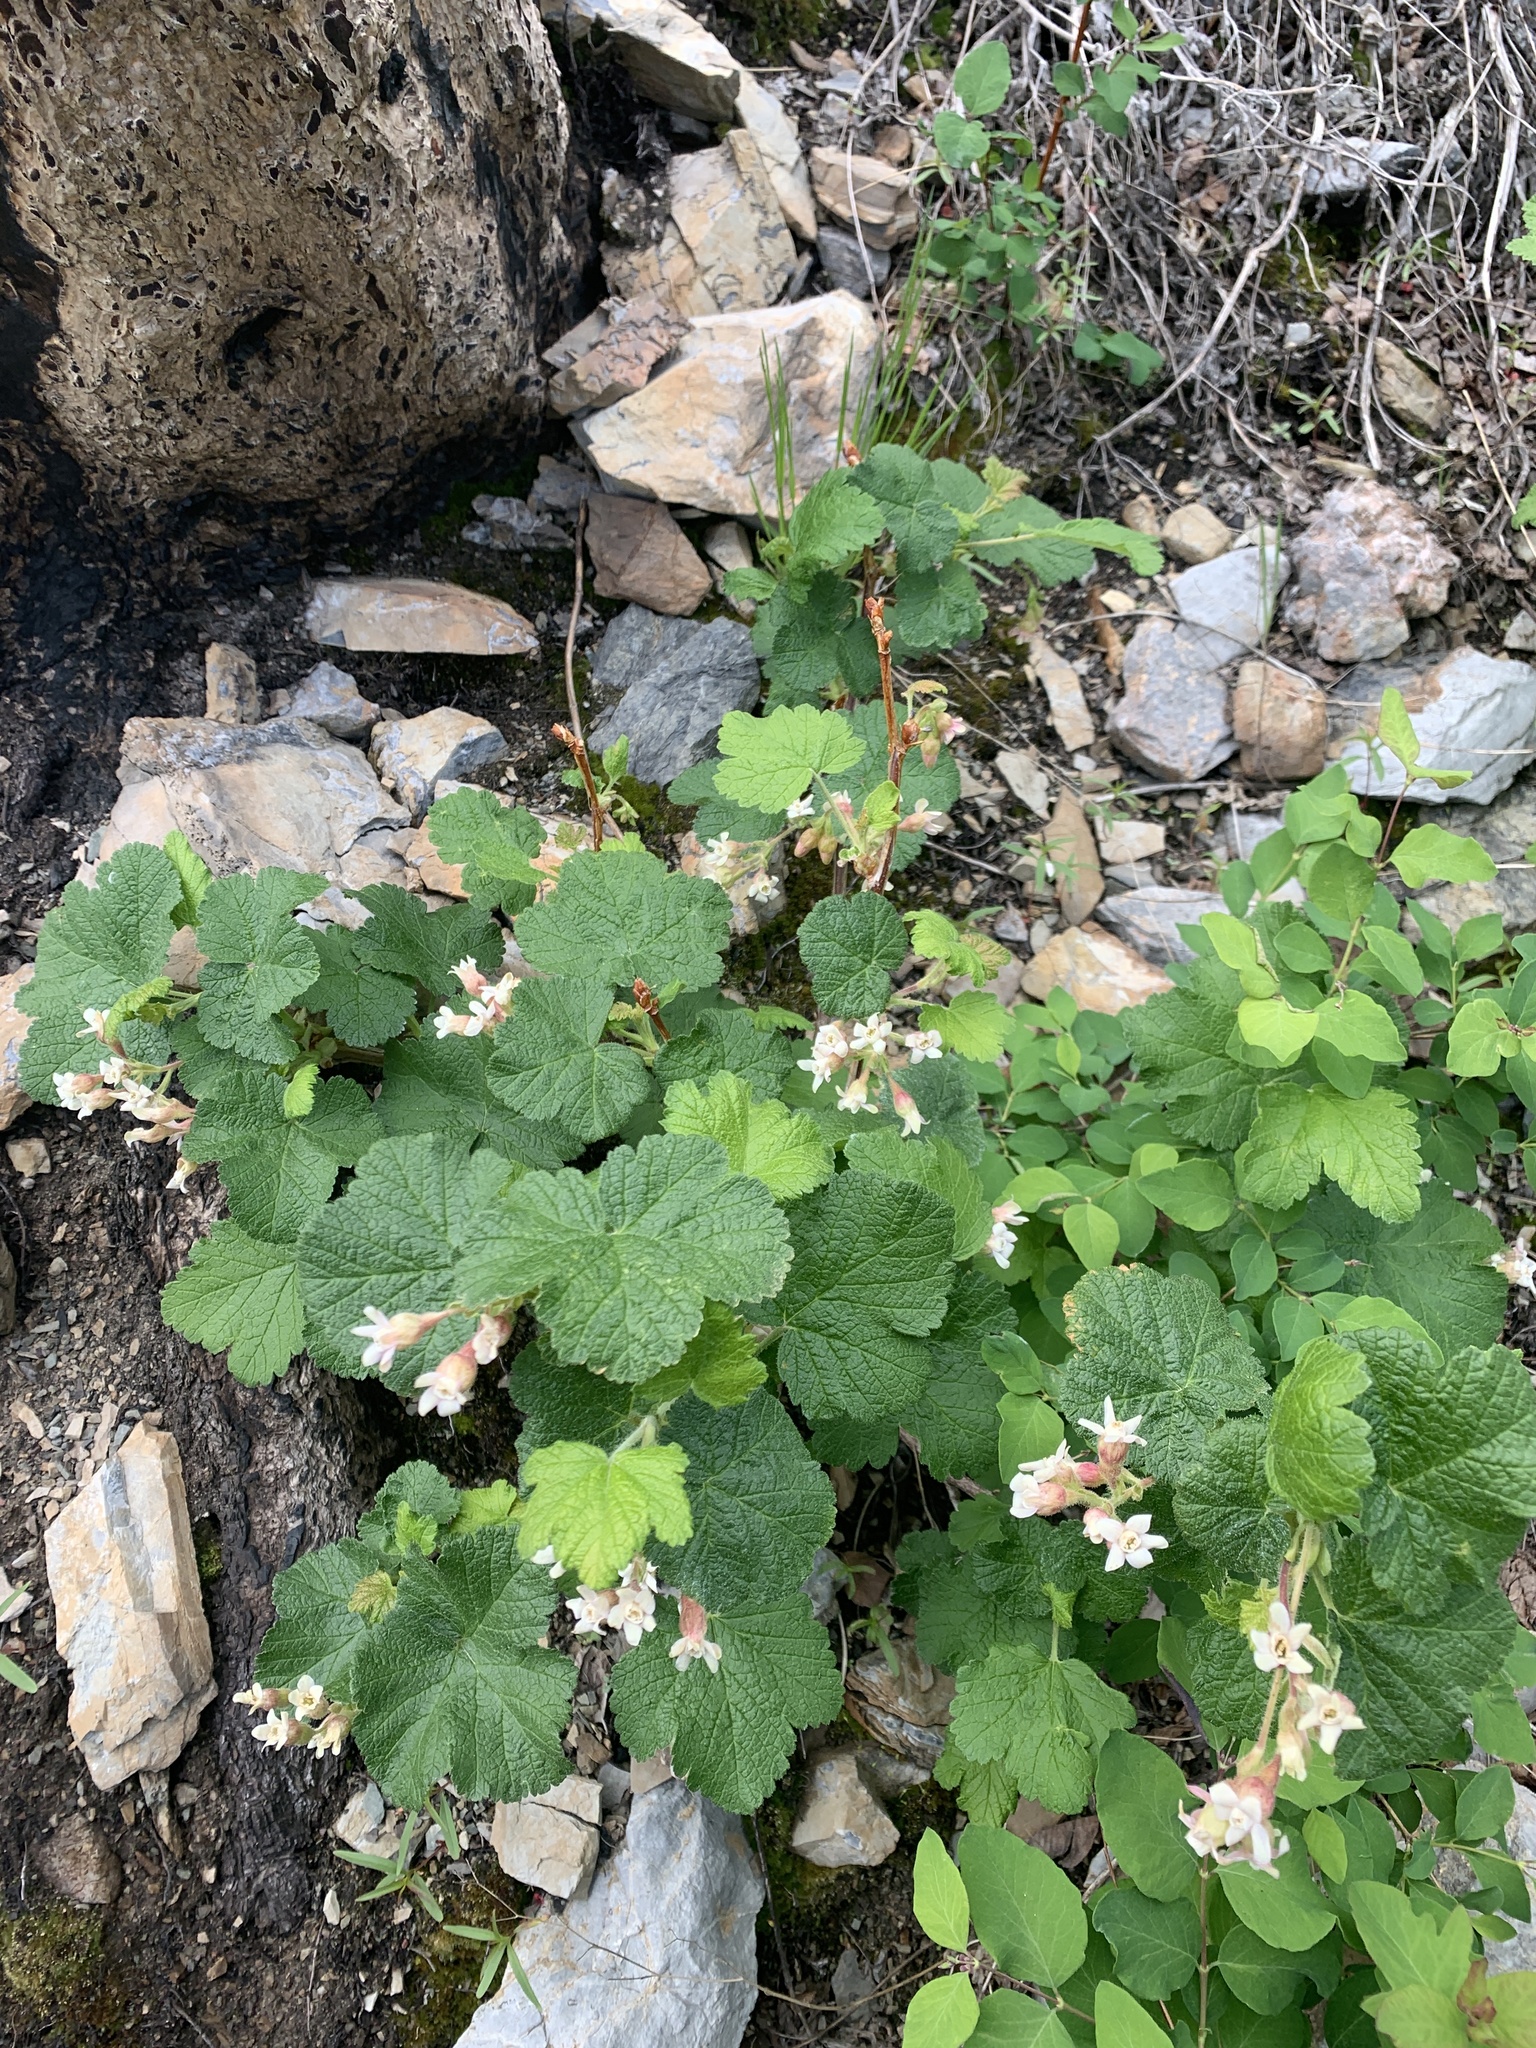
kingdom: Plantae
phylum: Tracheophyta
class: Magnoliopsida
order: Saxifragales
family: Grossulariaceae
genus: Ribes
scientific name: Ribes viscosissimum
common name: Sticky currant
